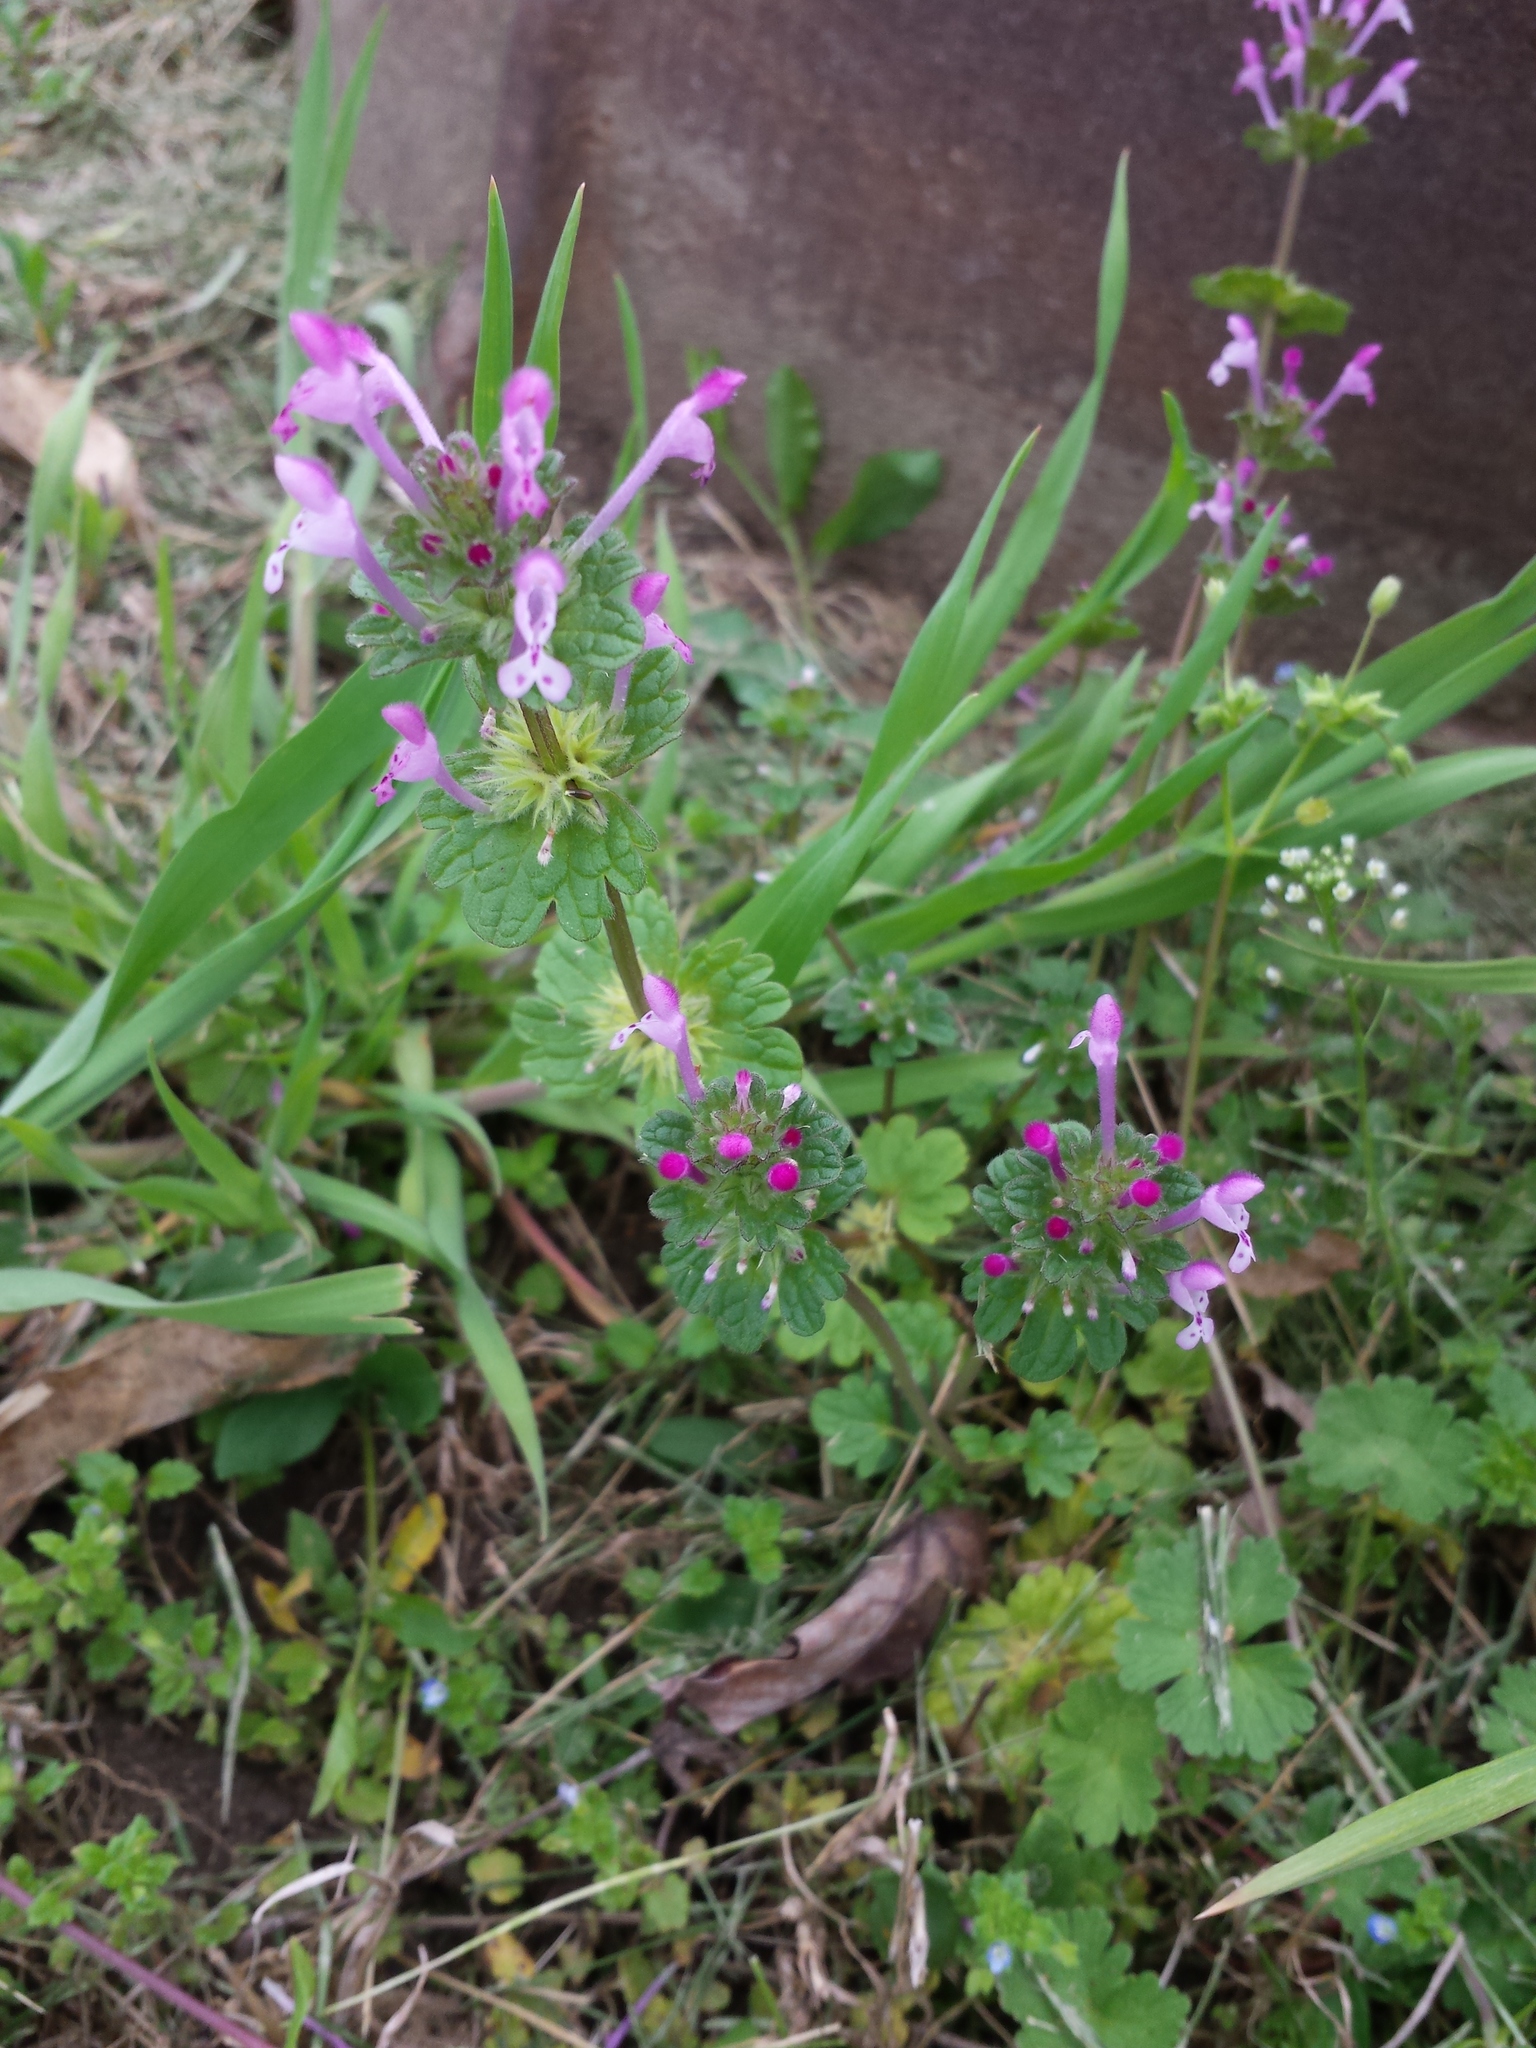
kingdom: Plantae
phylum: Tracheophyta
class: Magnoliopsida
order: Lamiales
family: Lamiaceae
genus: Lamium
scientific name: Lamium amplexicaule
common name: Henbit dead-nettle
